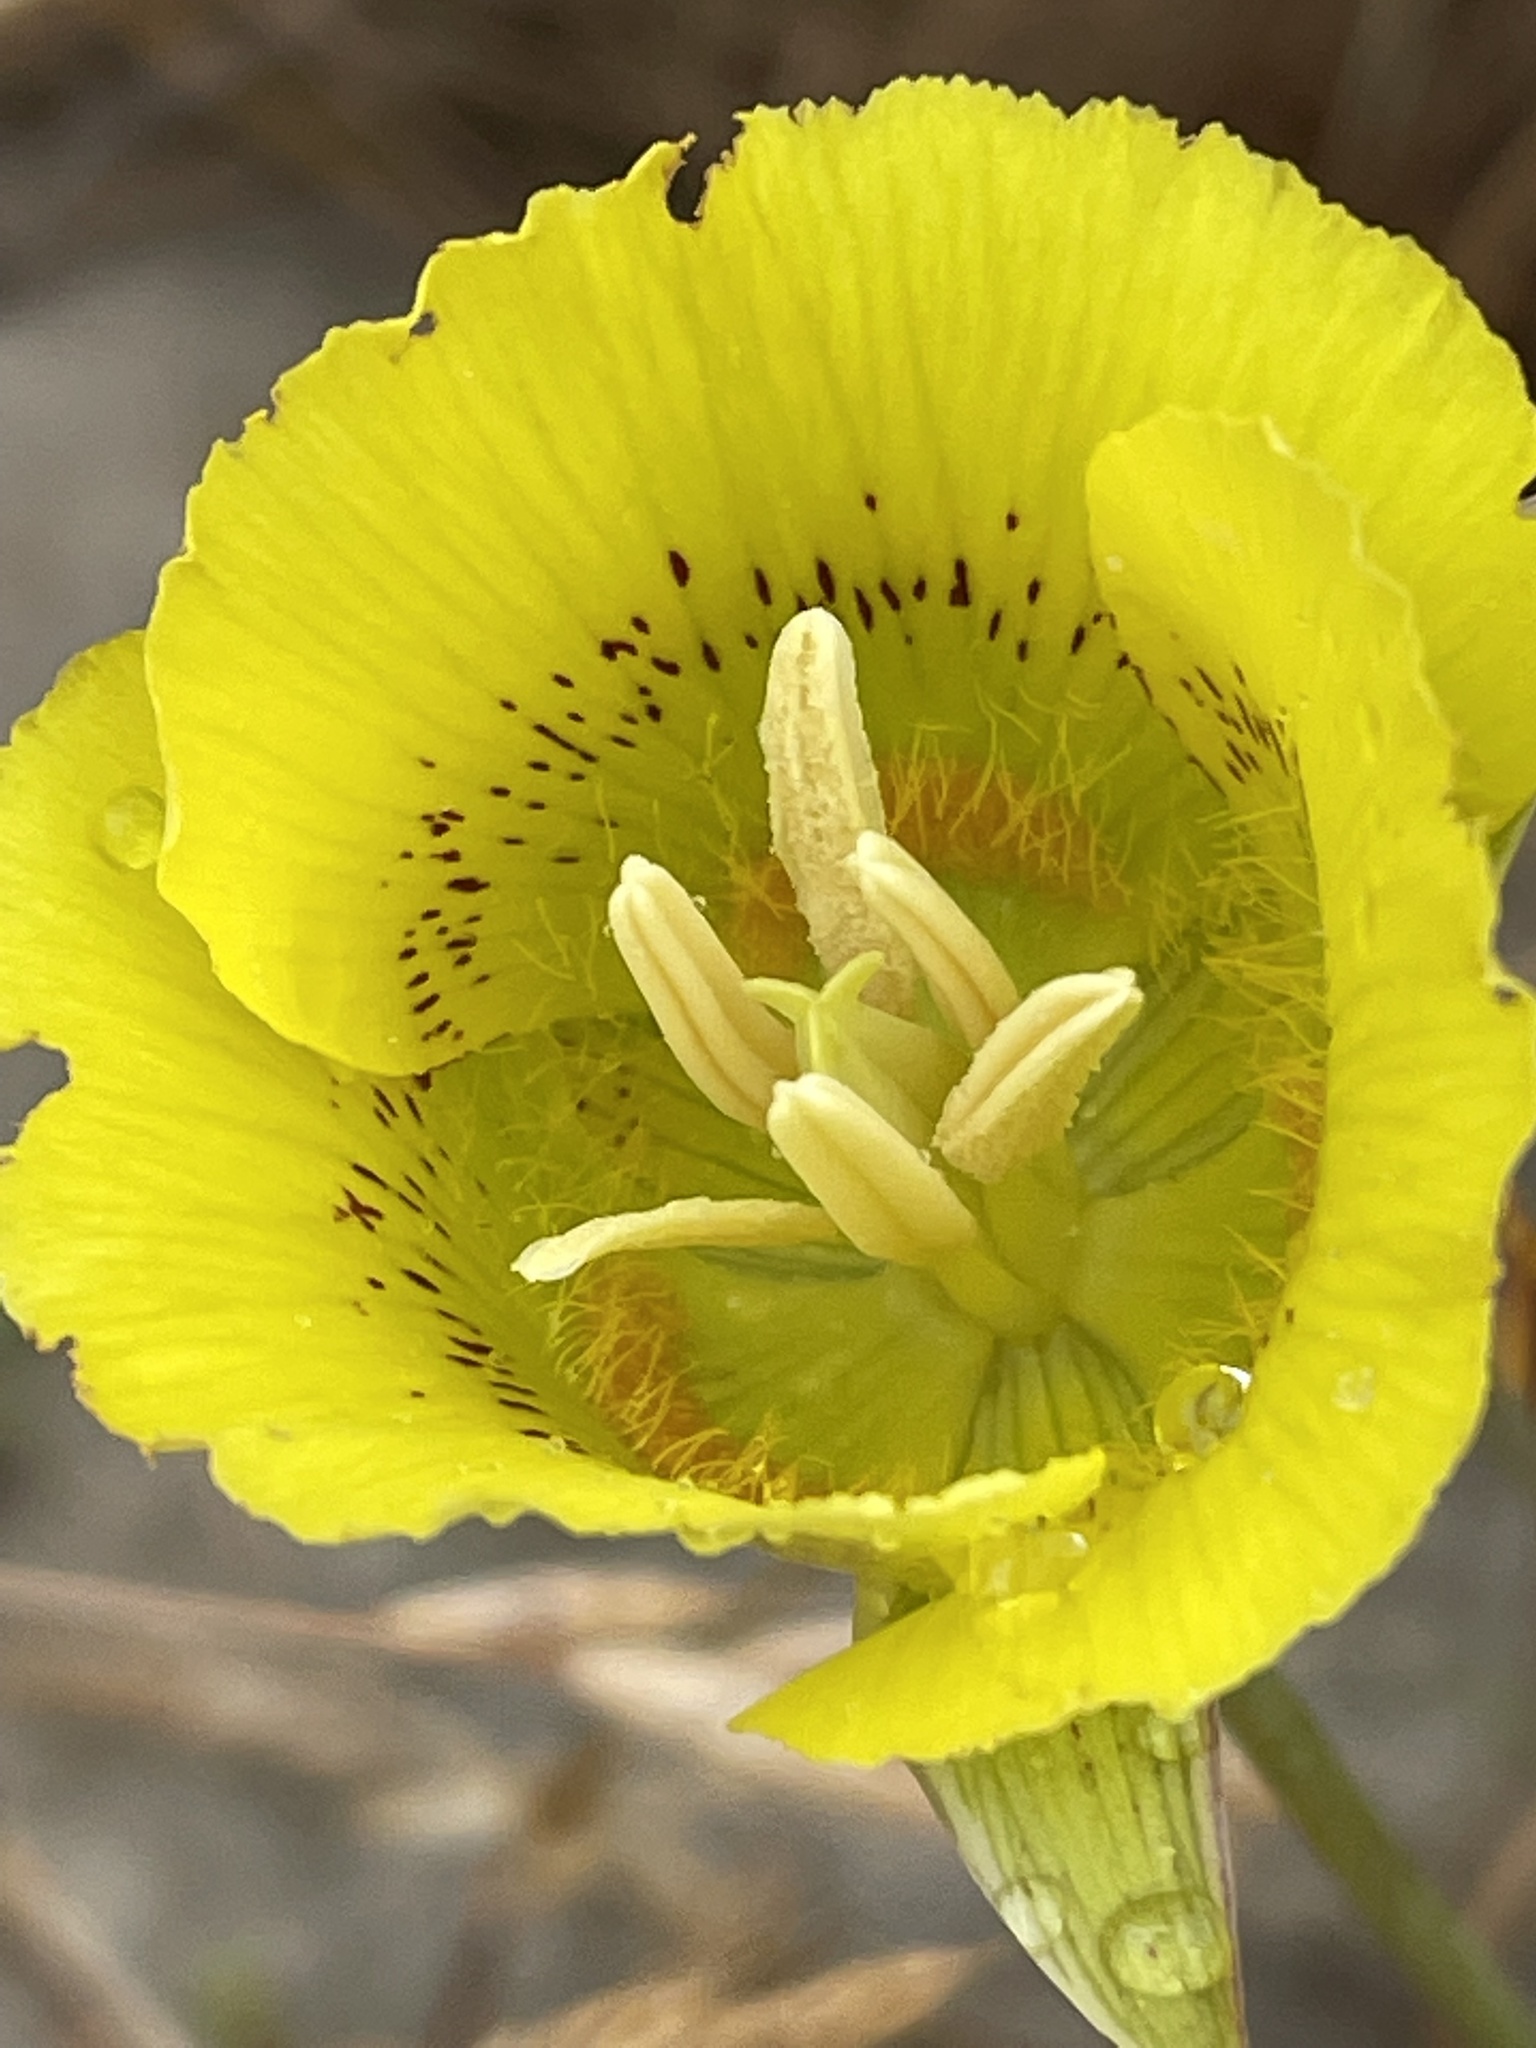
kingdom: Plantae
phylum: Tracheophyta
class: Liliopsida
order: Liliales
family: Liliaceae
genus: Calochortus
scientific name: Calochortus luteus
